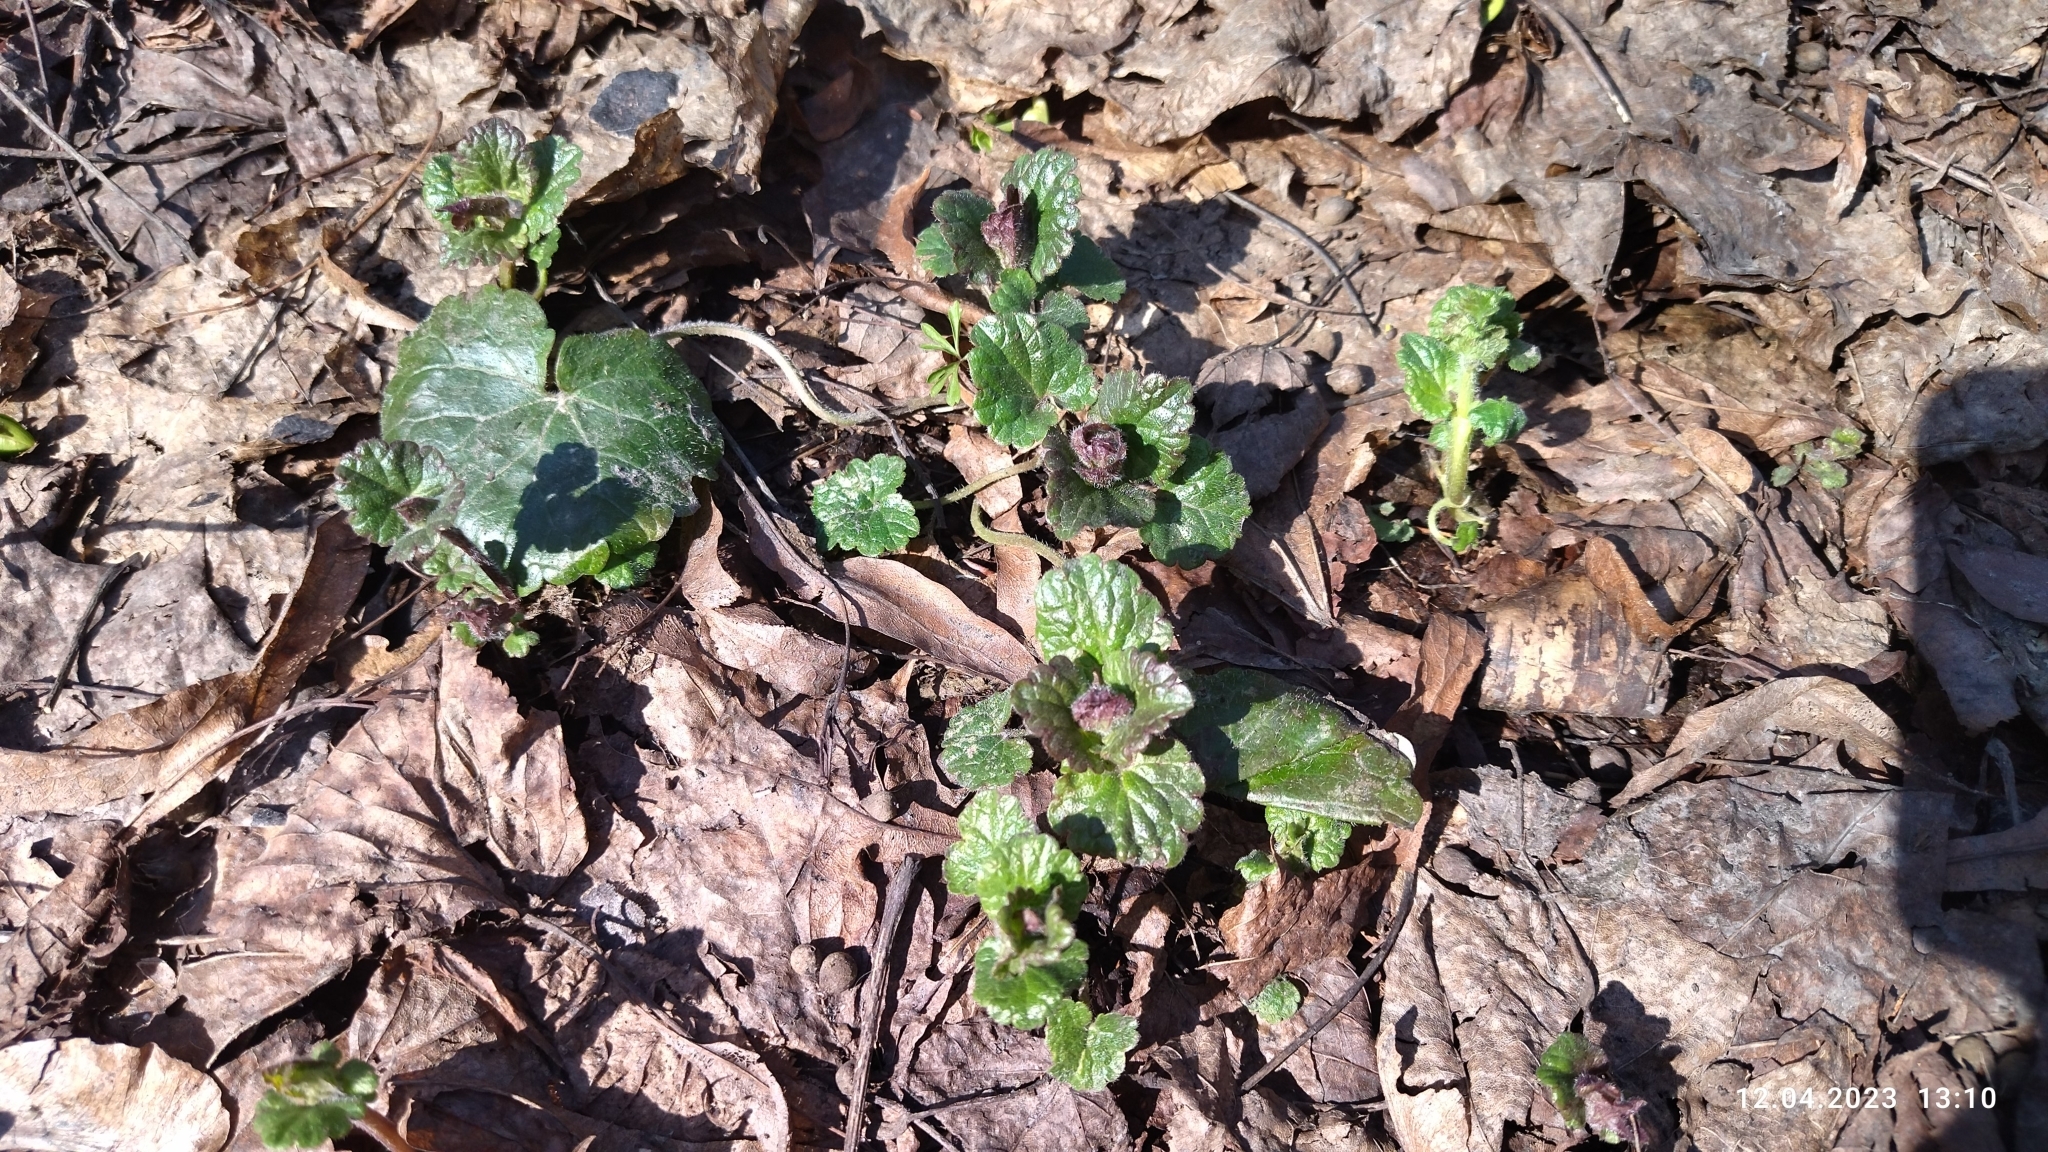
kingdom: Plantae
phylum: Tracheophyta
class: Magnoliopsida
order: Lamiales
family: Lamiaceae
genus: Glechoma
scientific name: Glechoma hederacea
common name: Ground ivy
